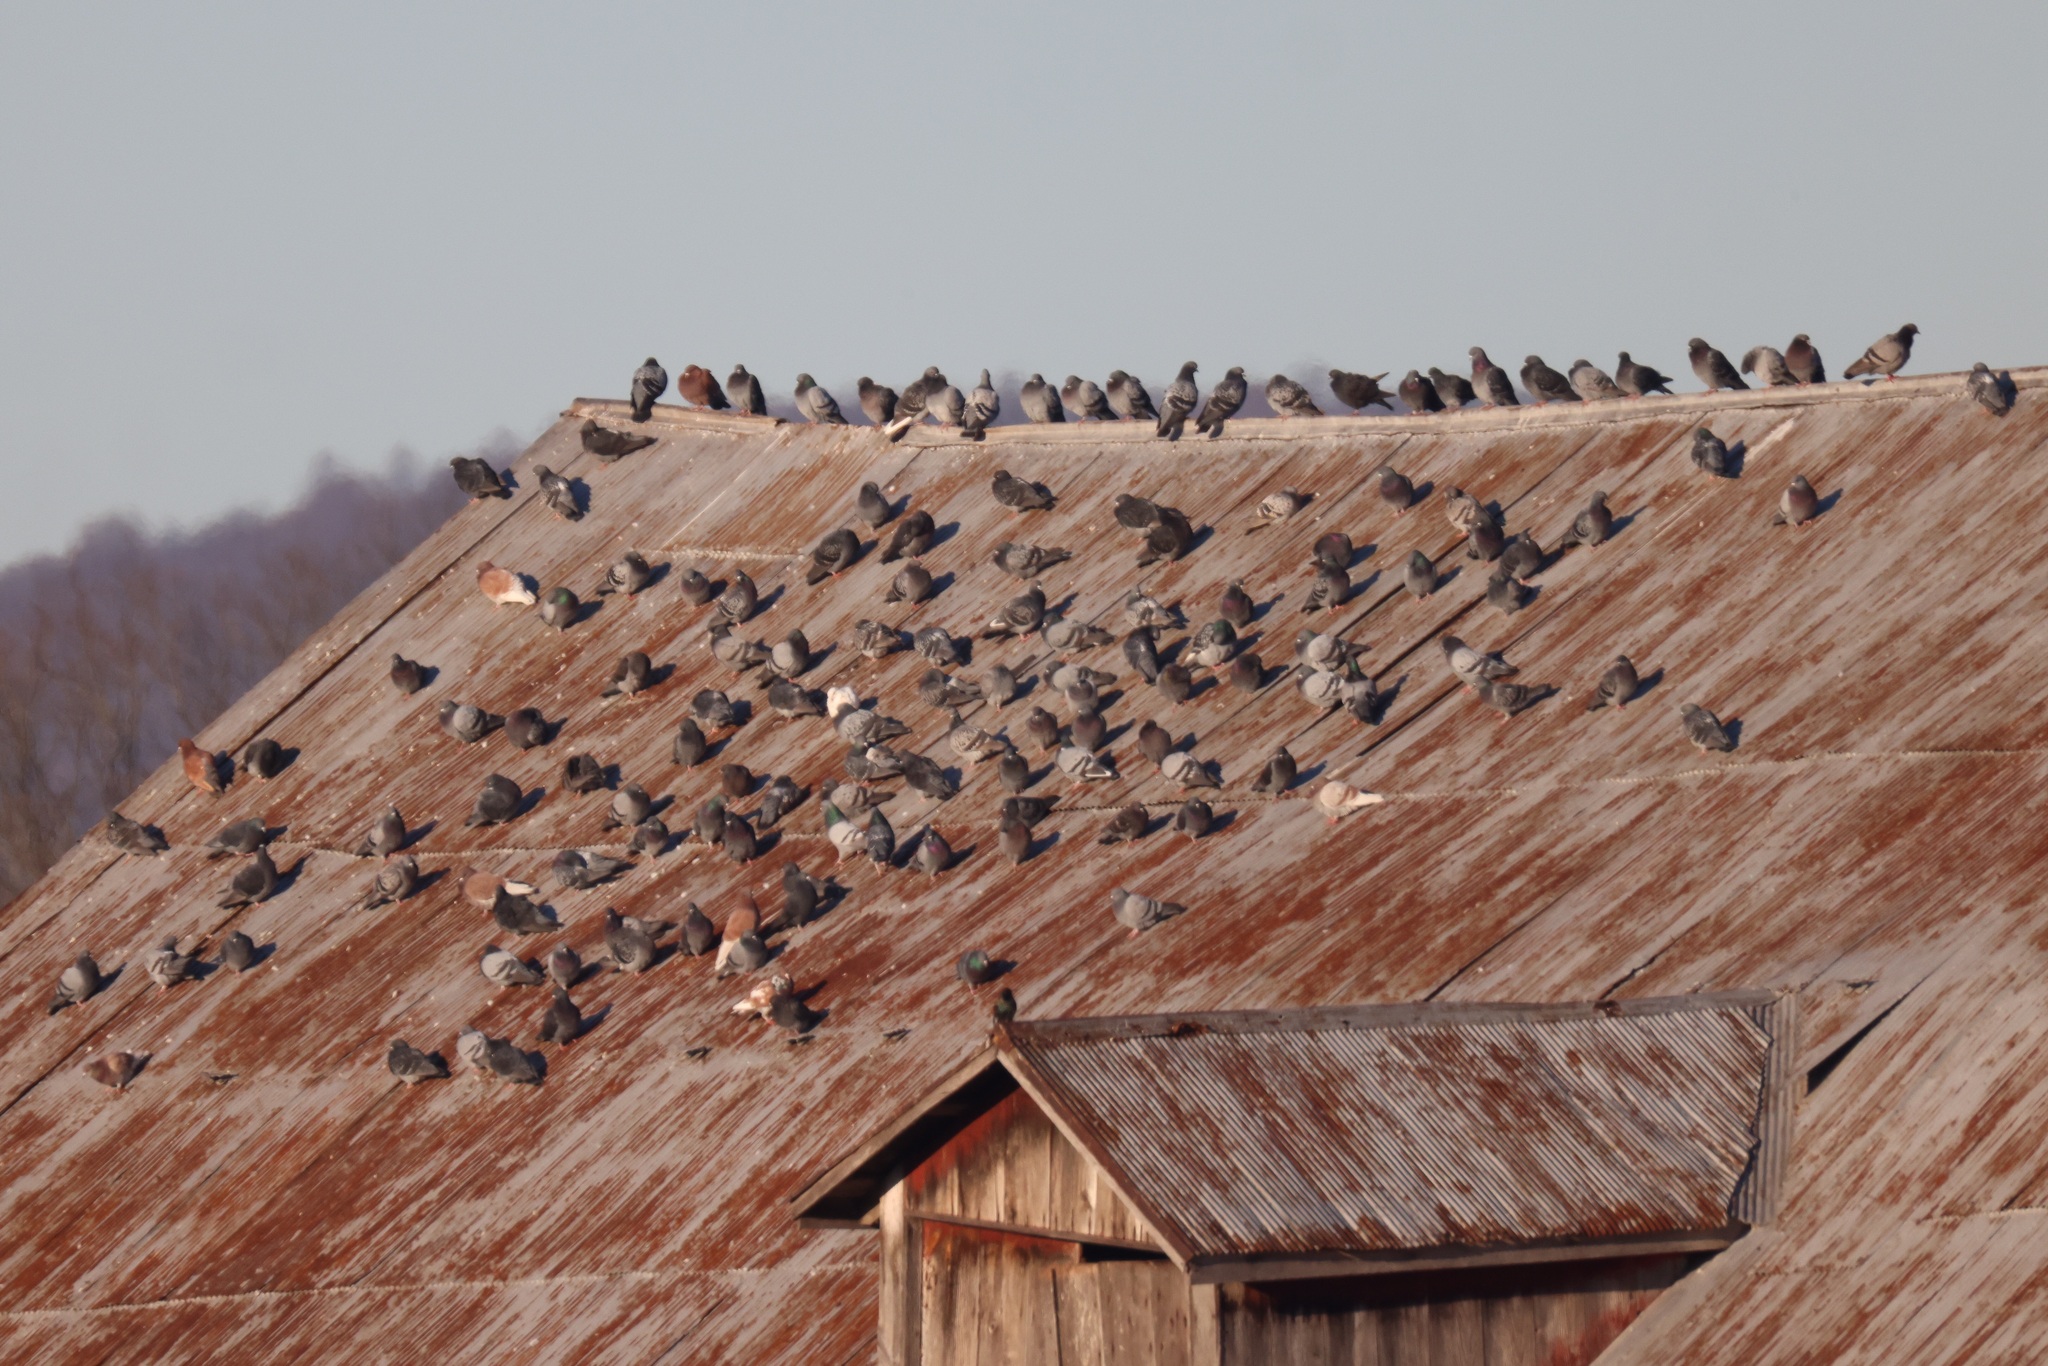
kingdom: Animalia
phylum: Chordata
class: Aves
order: Columbiformes
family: Columbidae
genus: Columba
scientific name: Columba livia
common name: Rock pigeon
